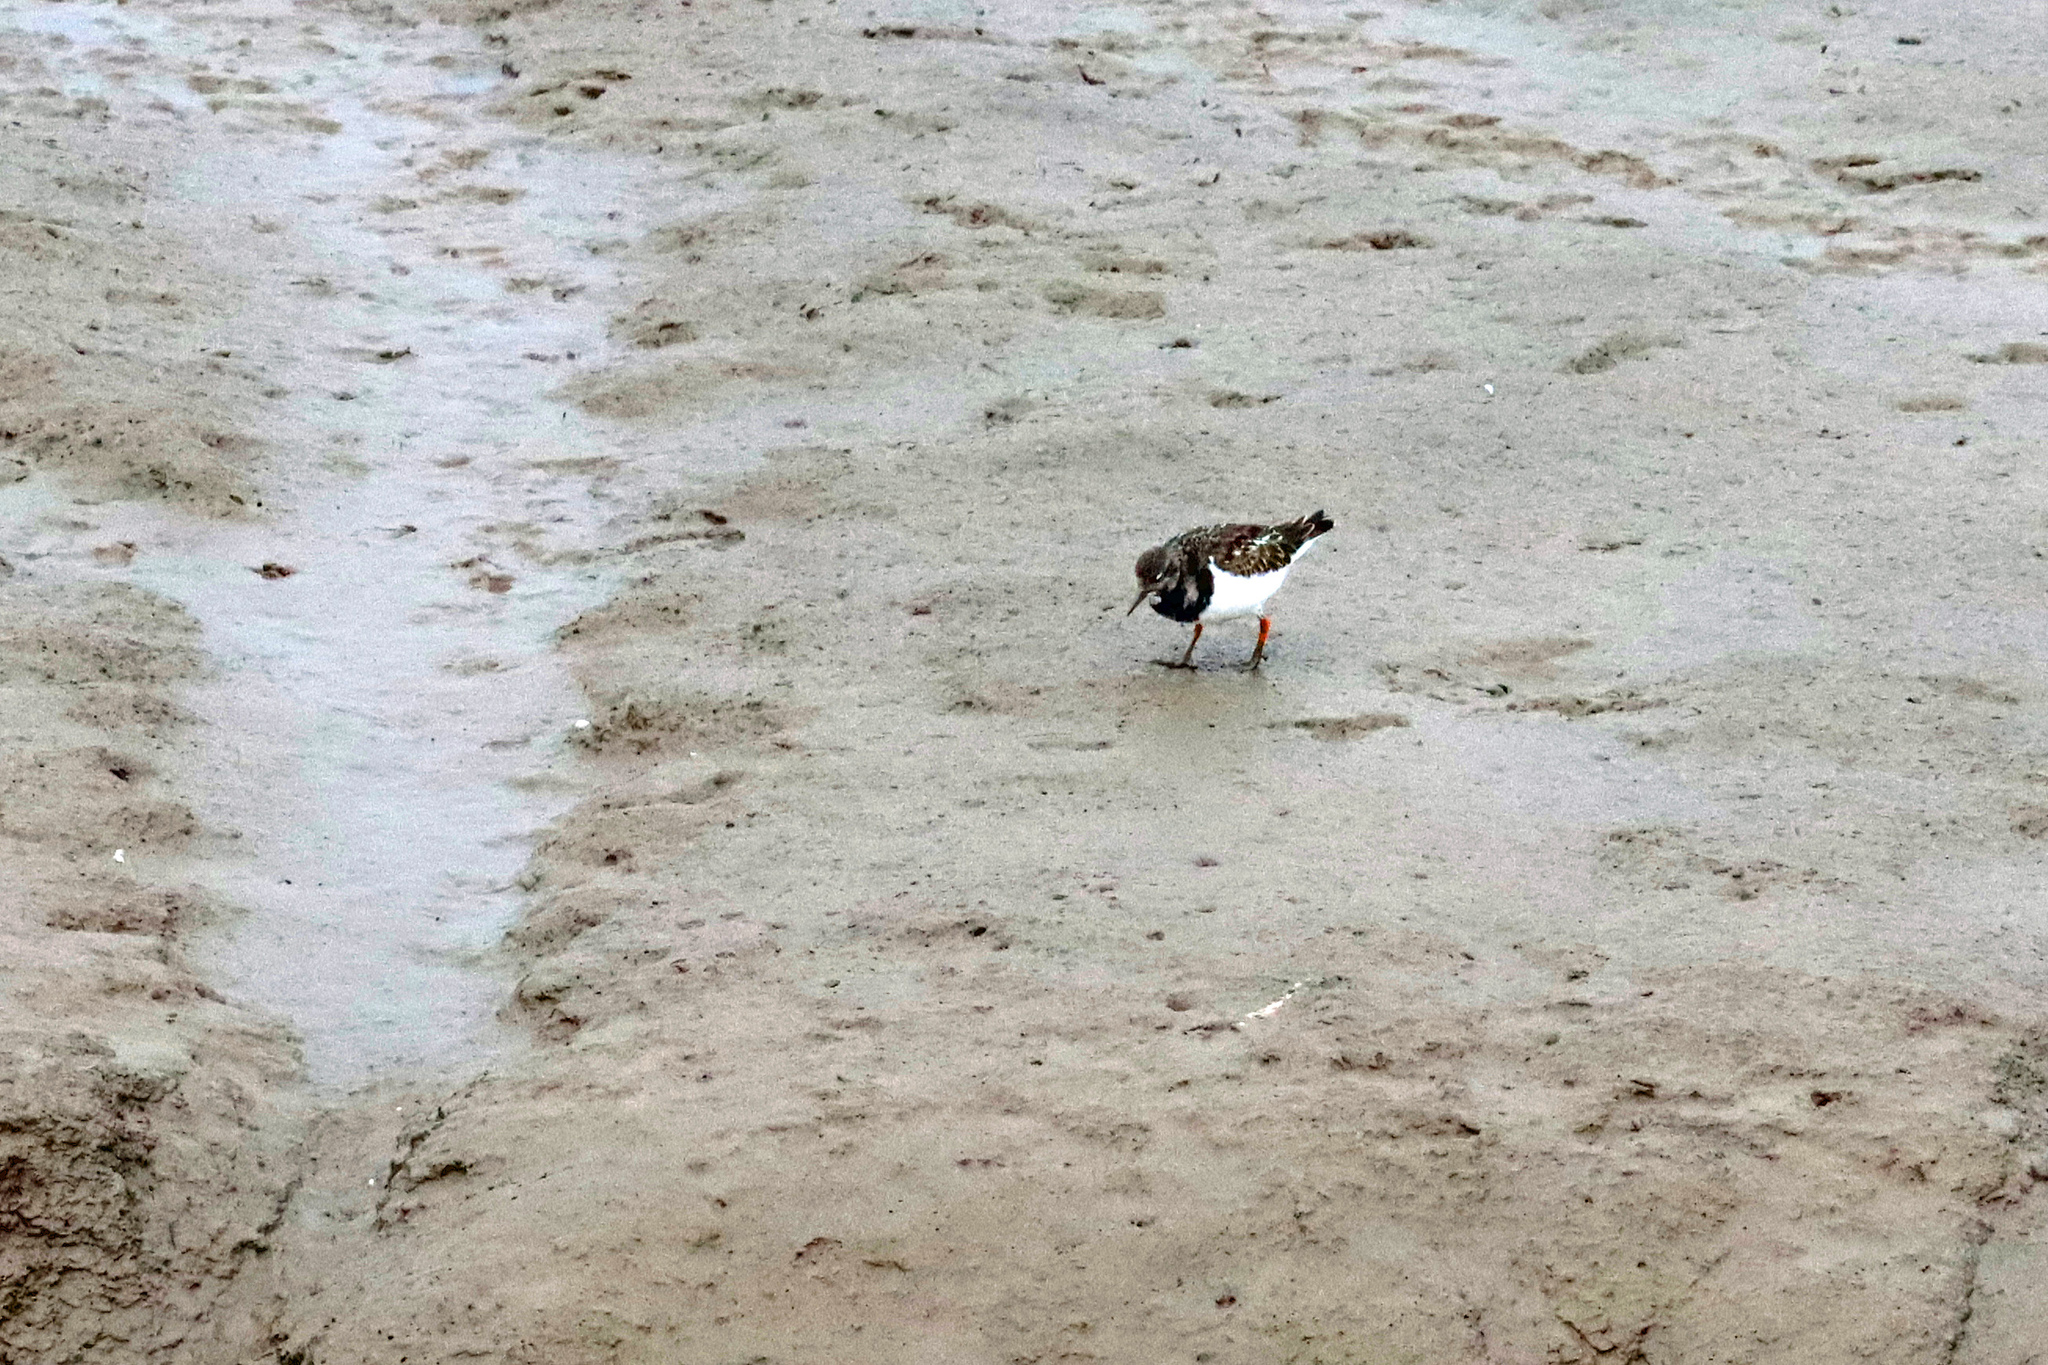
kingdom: Animalia
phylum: Chordata
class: Aves
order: Charadriiformes
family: Scolopacidae
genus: Arenaria
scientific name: Arenaria interpres
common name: Ruddy turnstone
